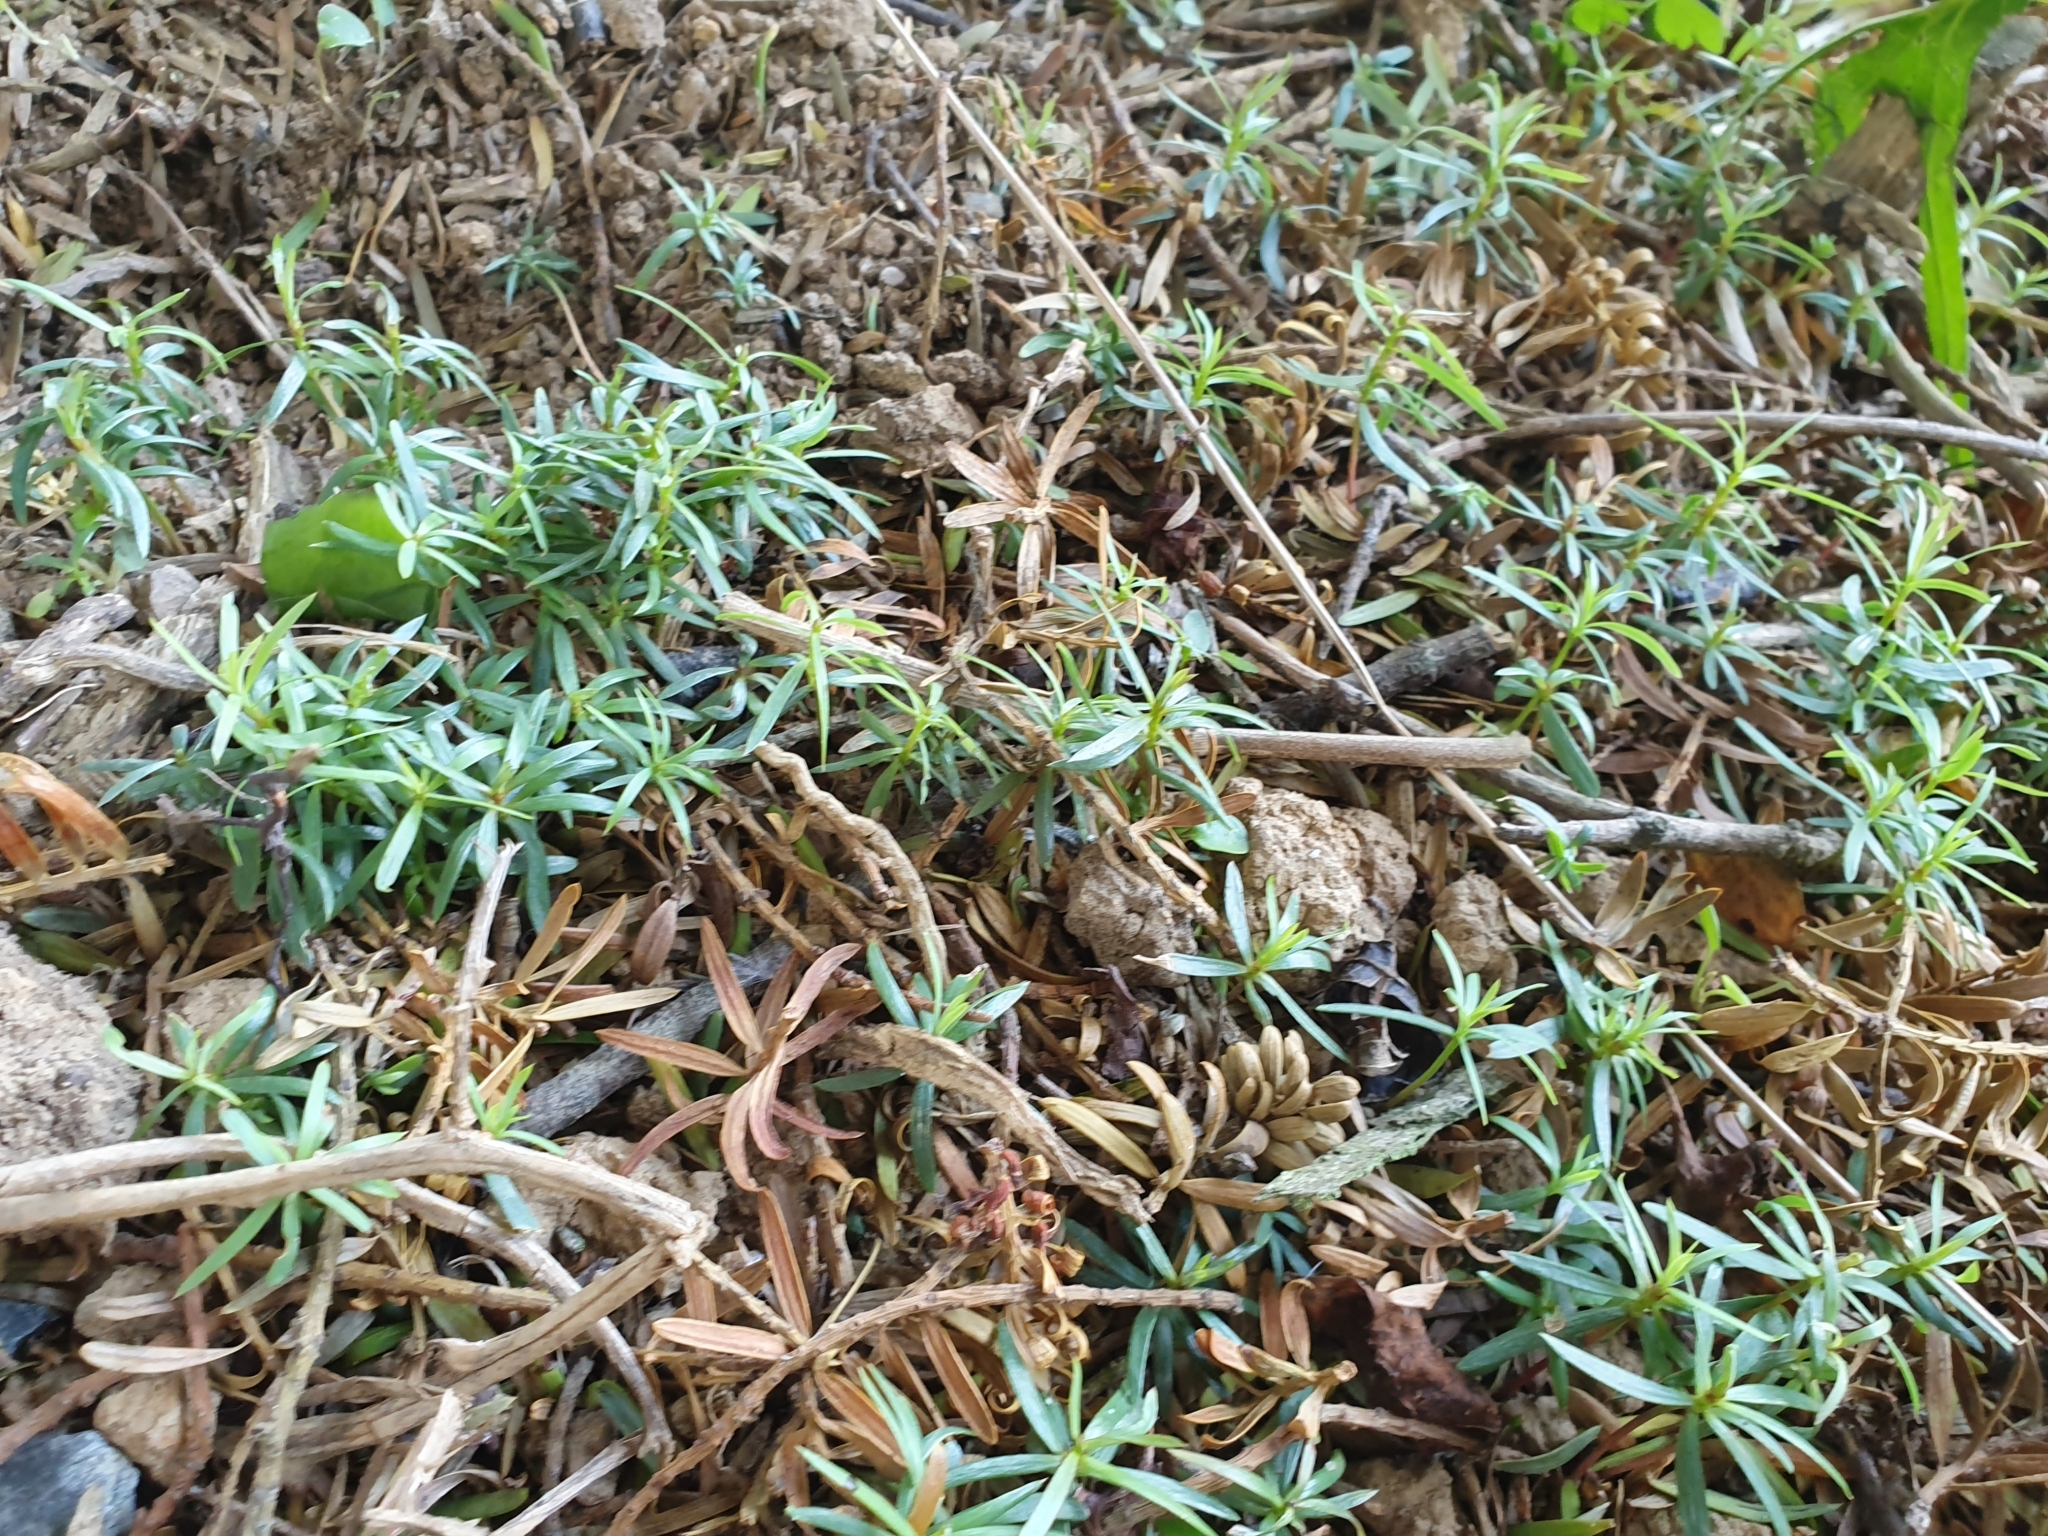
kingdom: Plantae
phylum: Tracheophyta
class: Pinopsida
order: Pinales
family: Podocarpaceae
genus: Podocarpus
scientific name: Podocarpus totara
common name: Totara
